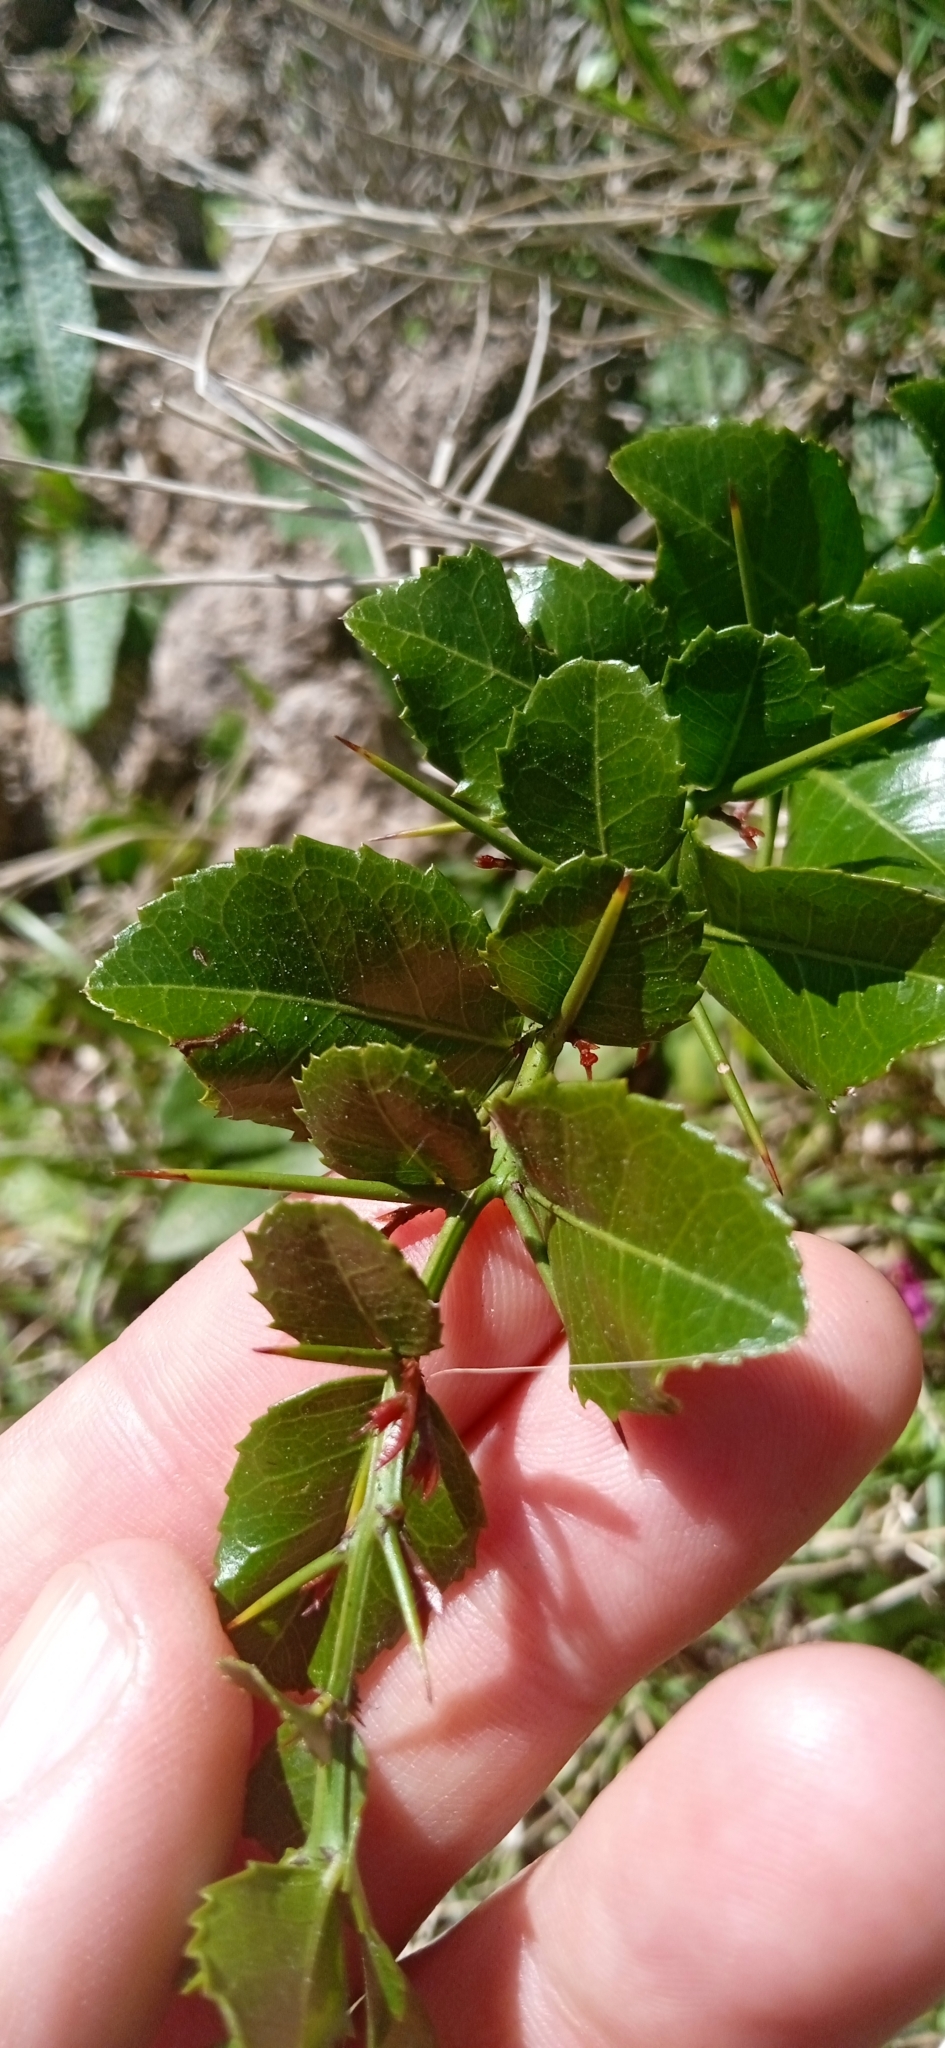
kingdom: Plantae
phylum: Tracheophyta
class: Magnoliopsida
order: Rosales
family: Rhamnaceae
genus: Scutia
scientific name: Scutia buxifolia
